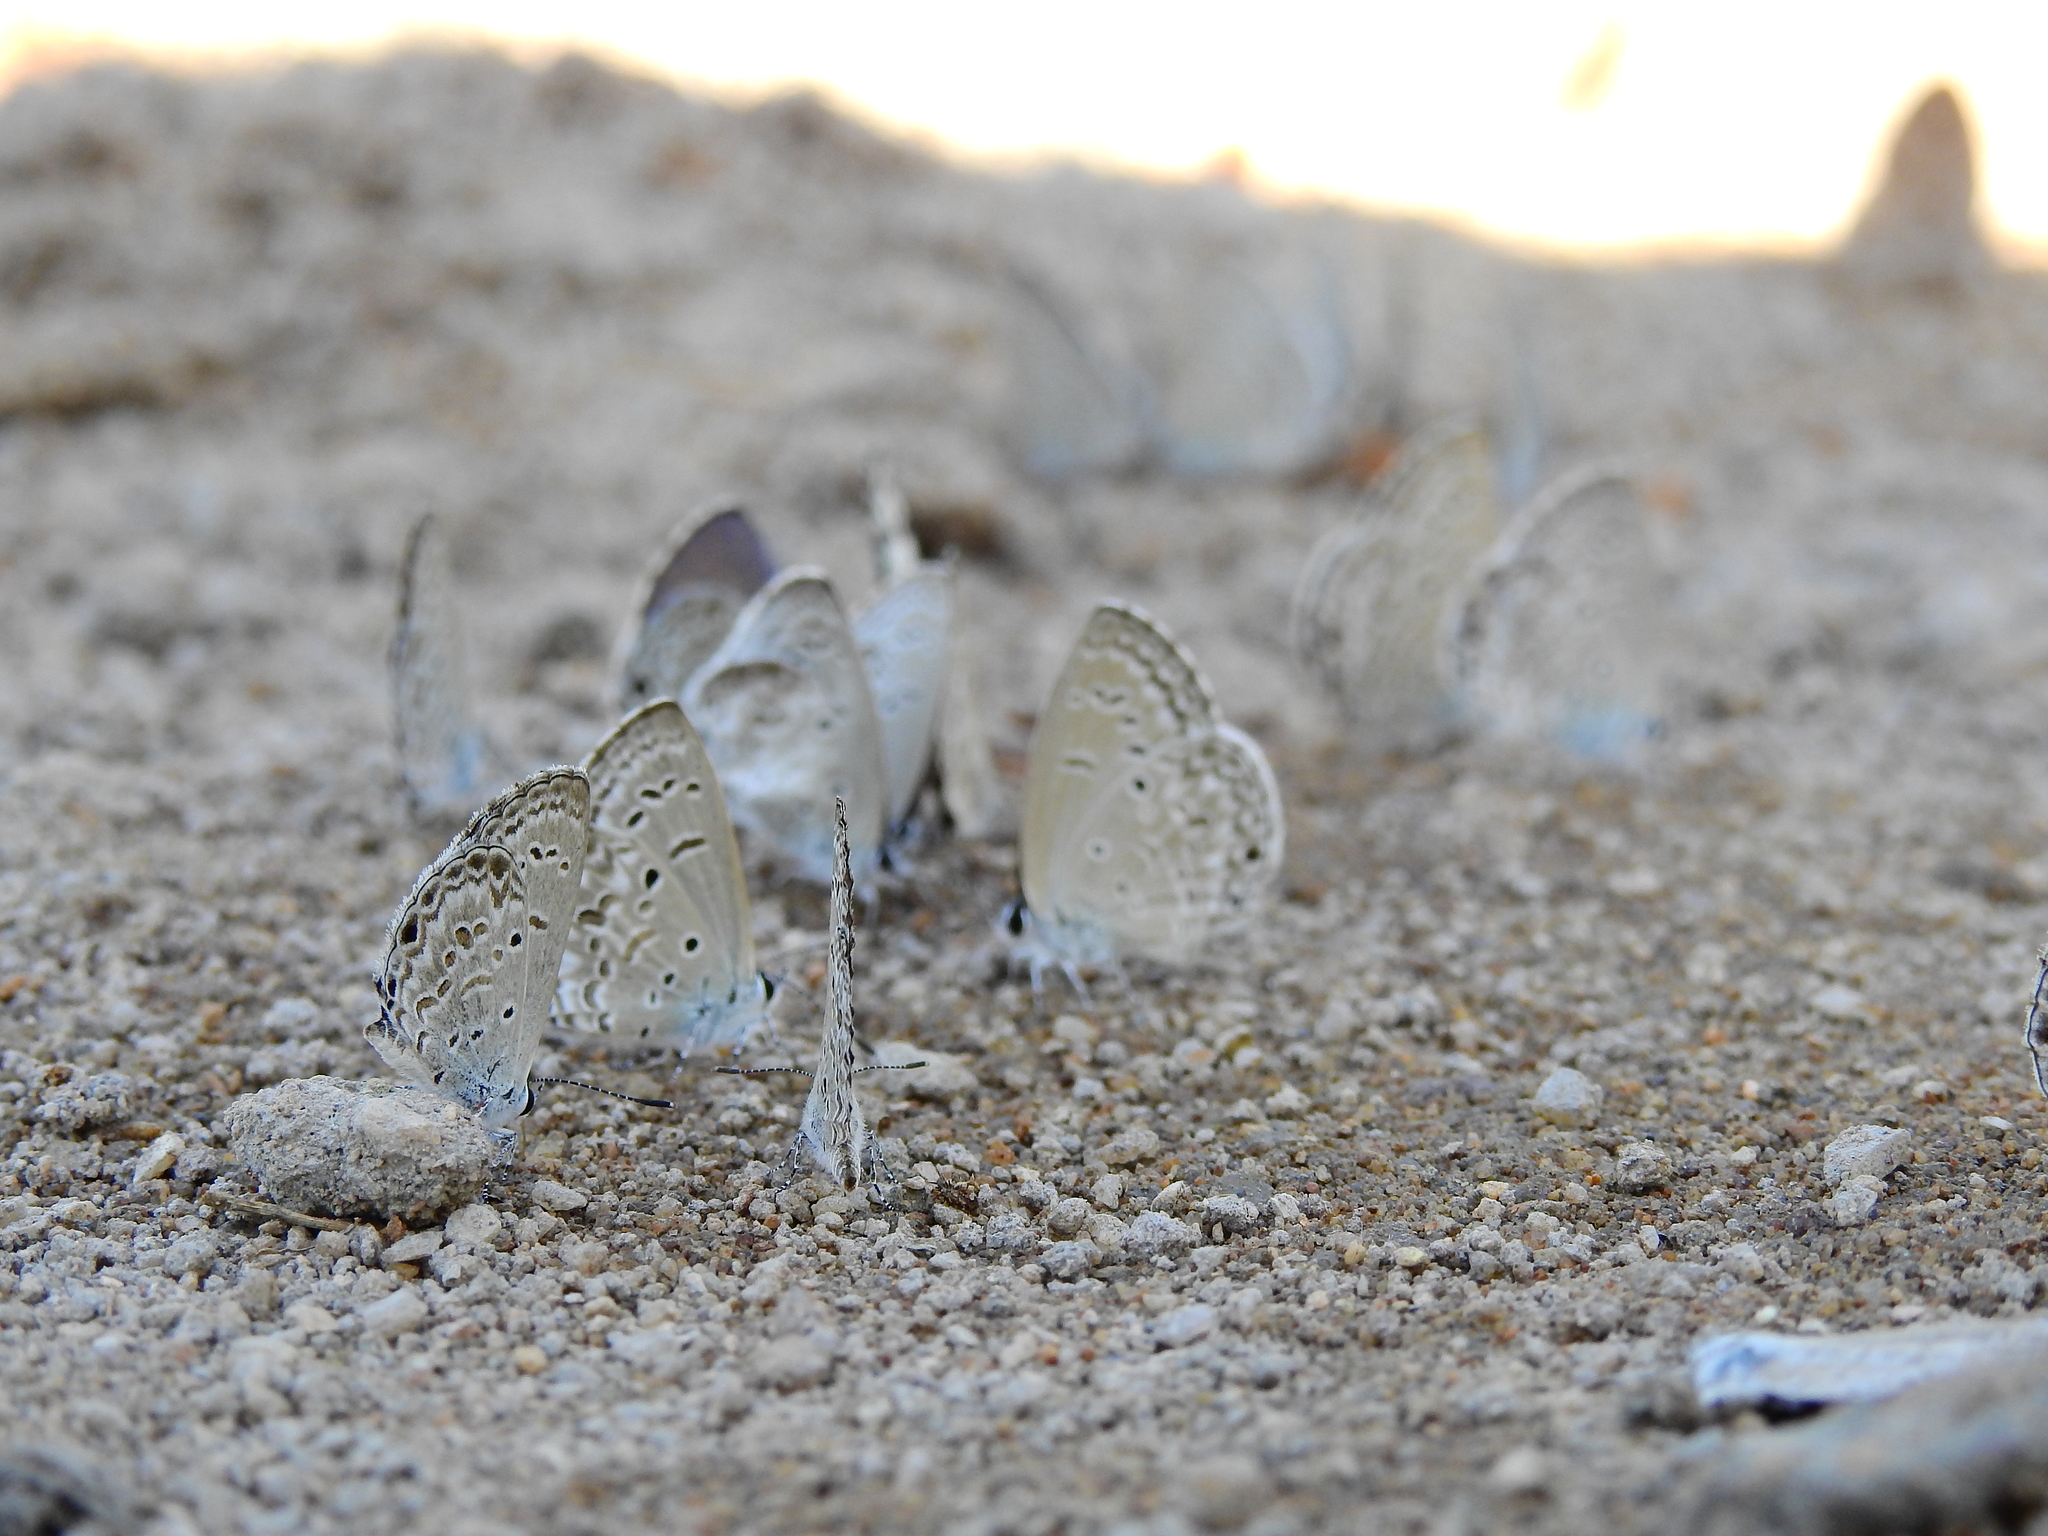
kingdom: Animalia
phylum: Arthropoda
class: Insecta
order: Lepidoptera
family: Lycaenidae
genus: Chilades
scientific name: Chilades laius
